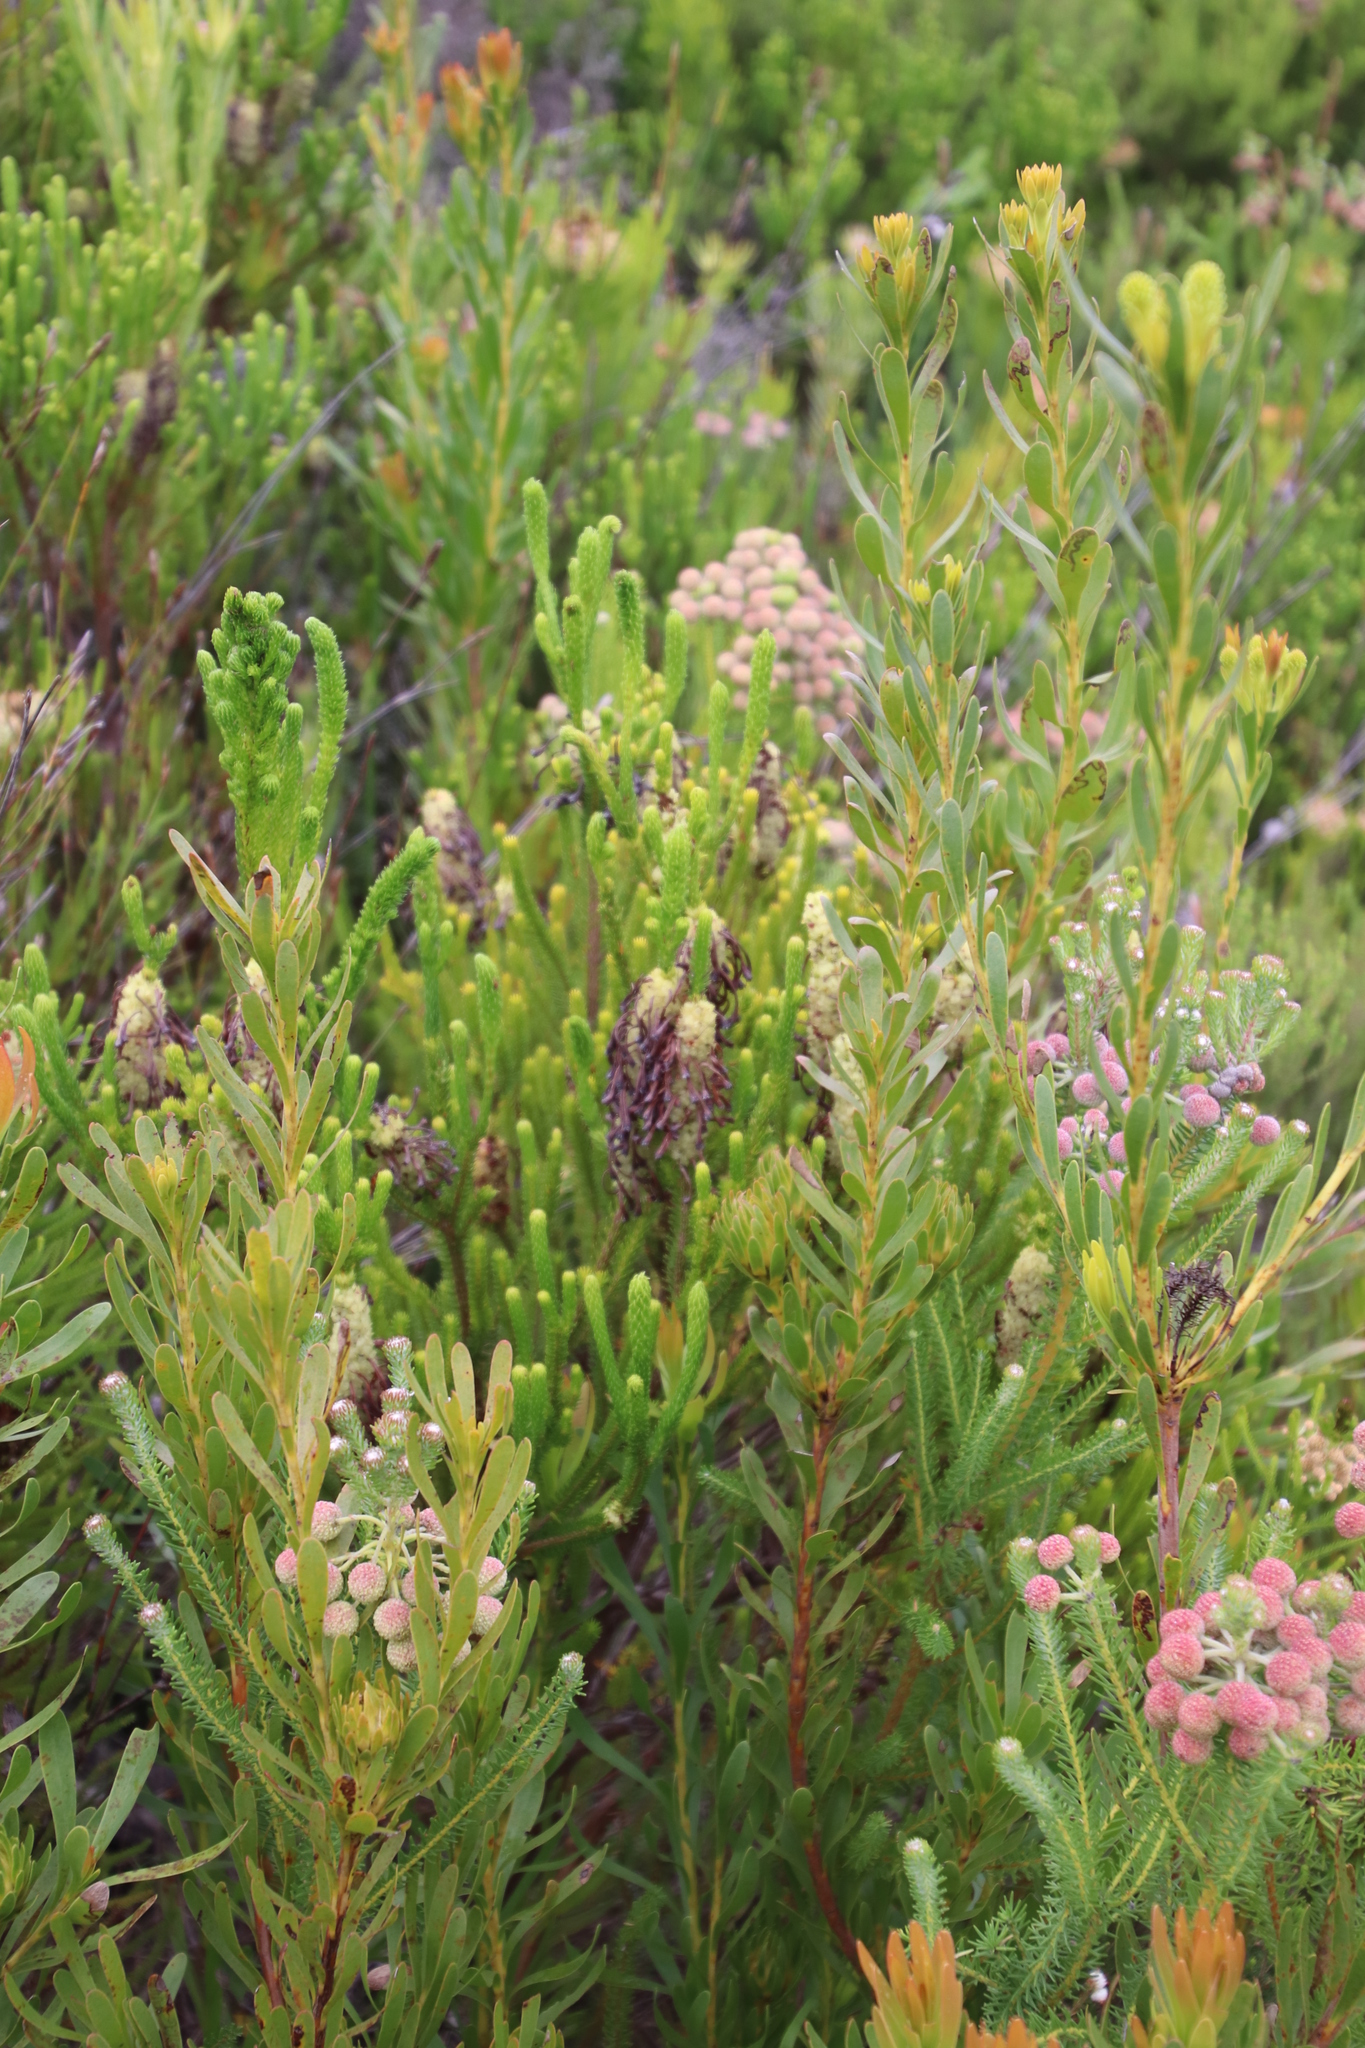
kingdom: Plantae
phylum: Tracheophyta
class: Magnoliopsida
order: Ericales
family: Ericaceae
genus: Erica
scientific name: Erica sessiliflora
